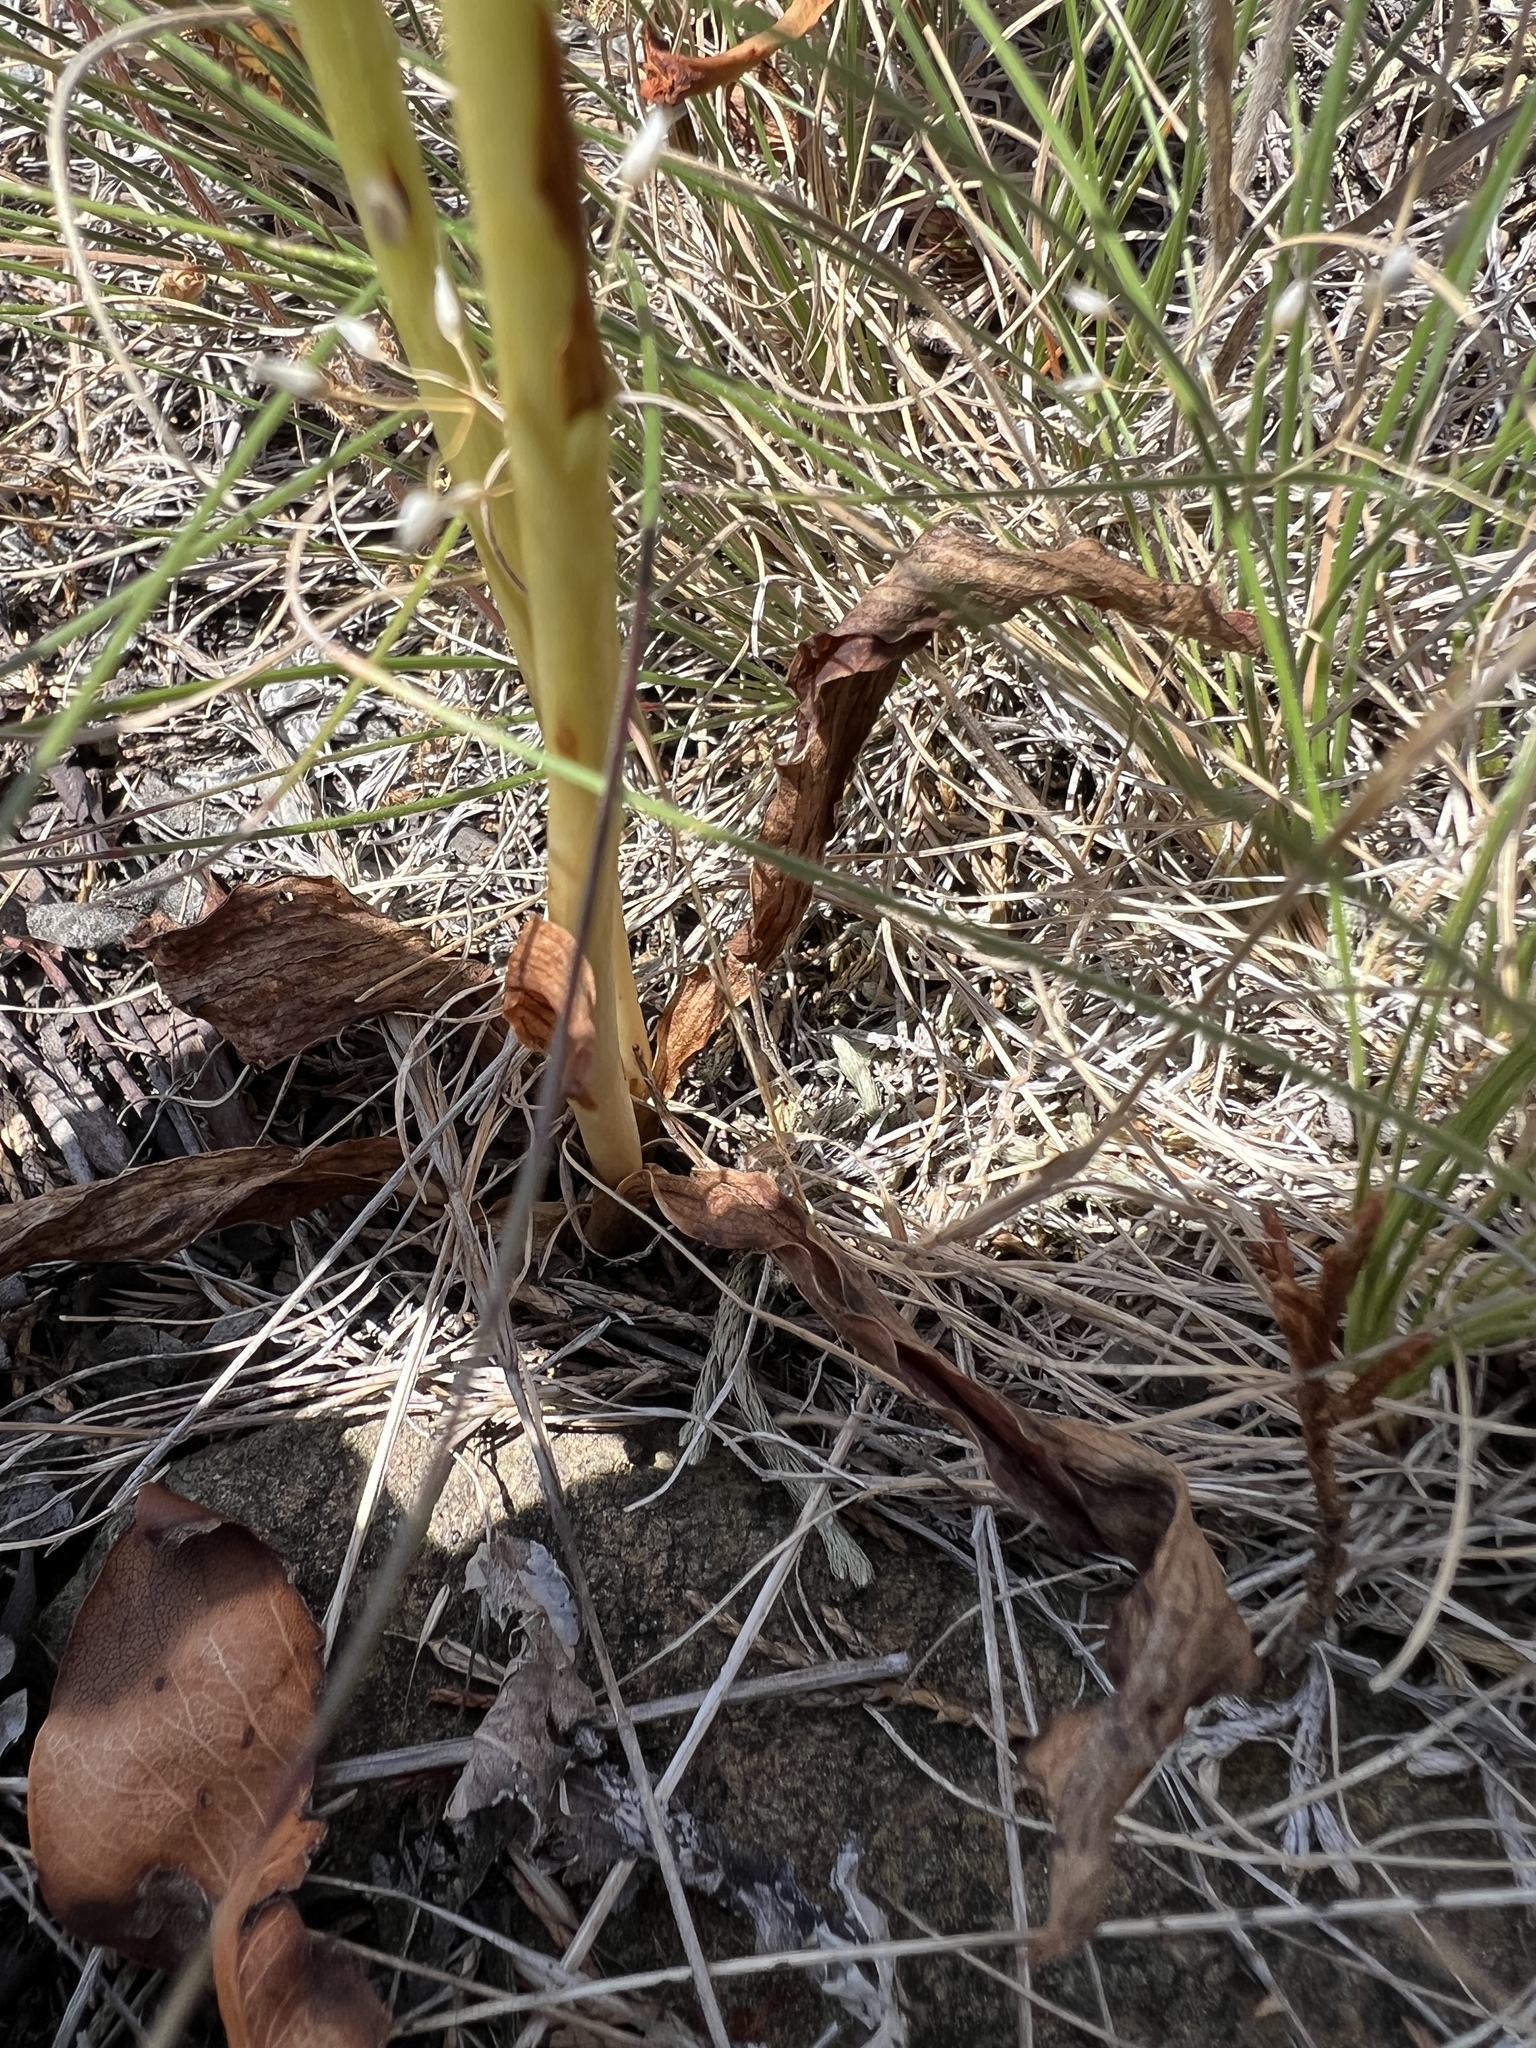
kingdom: Plantae
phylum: Tracheophyta
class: Liliopsida
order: Asparagales
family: Orchidaceae
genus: Platanthera
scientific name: Platanthera elegans
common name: Coast piperia
